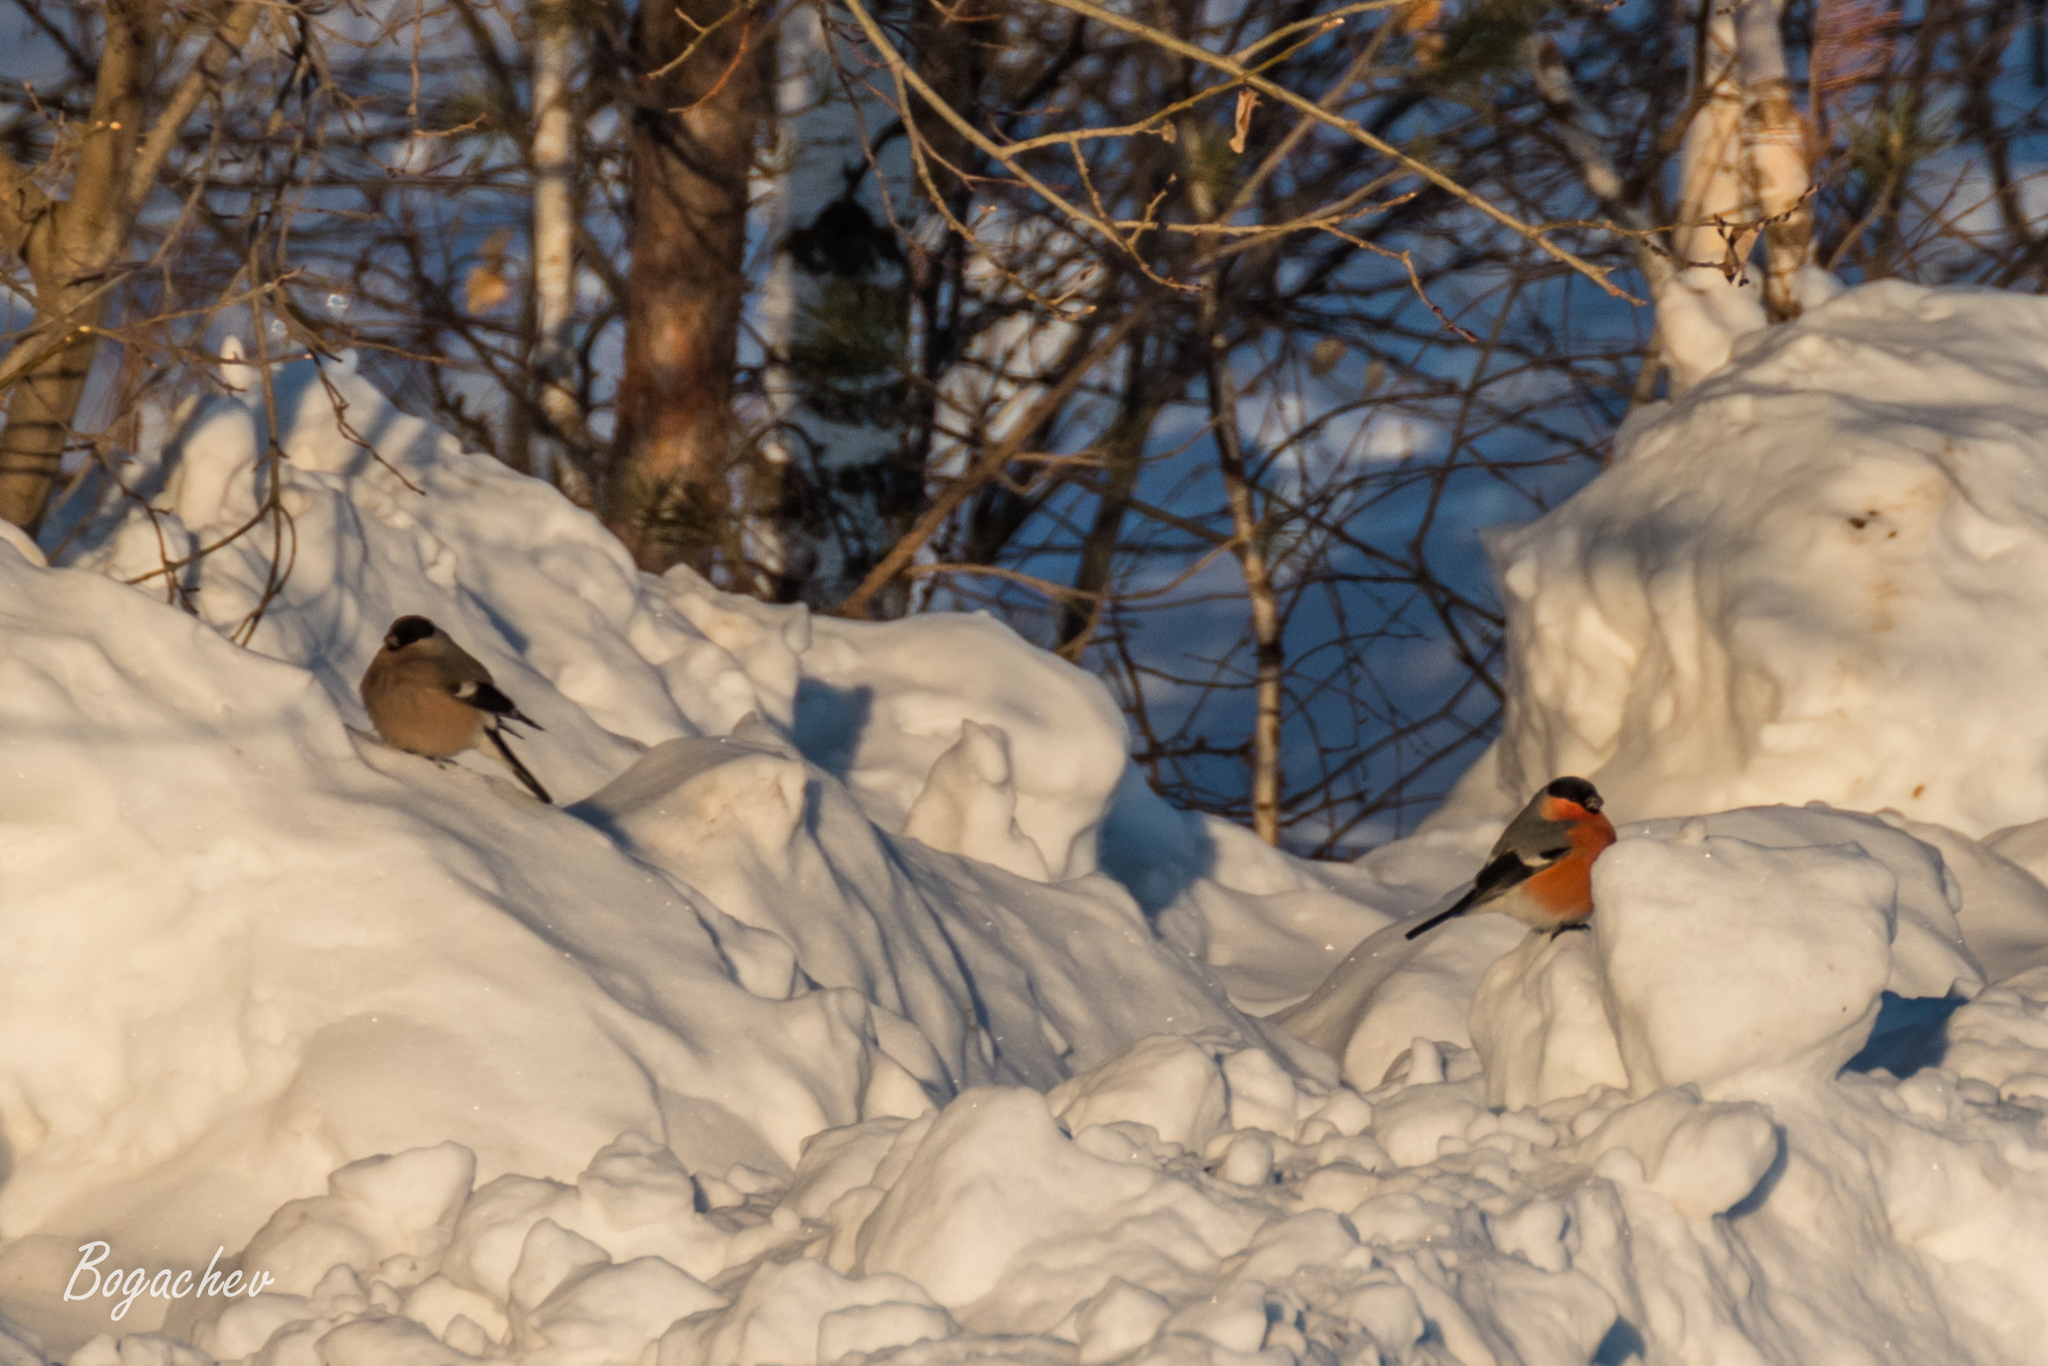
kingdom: Animalia
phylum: Chordata
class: Aves
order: Passeriformes
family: Fringillidae
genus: Pyrrhula
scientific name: Pyrrhula pyrrhula
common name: Eurasian bullfinch
